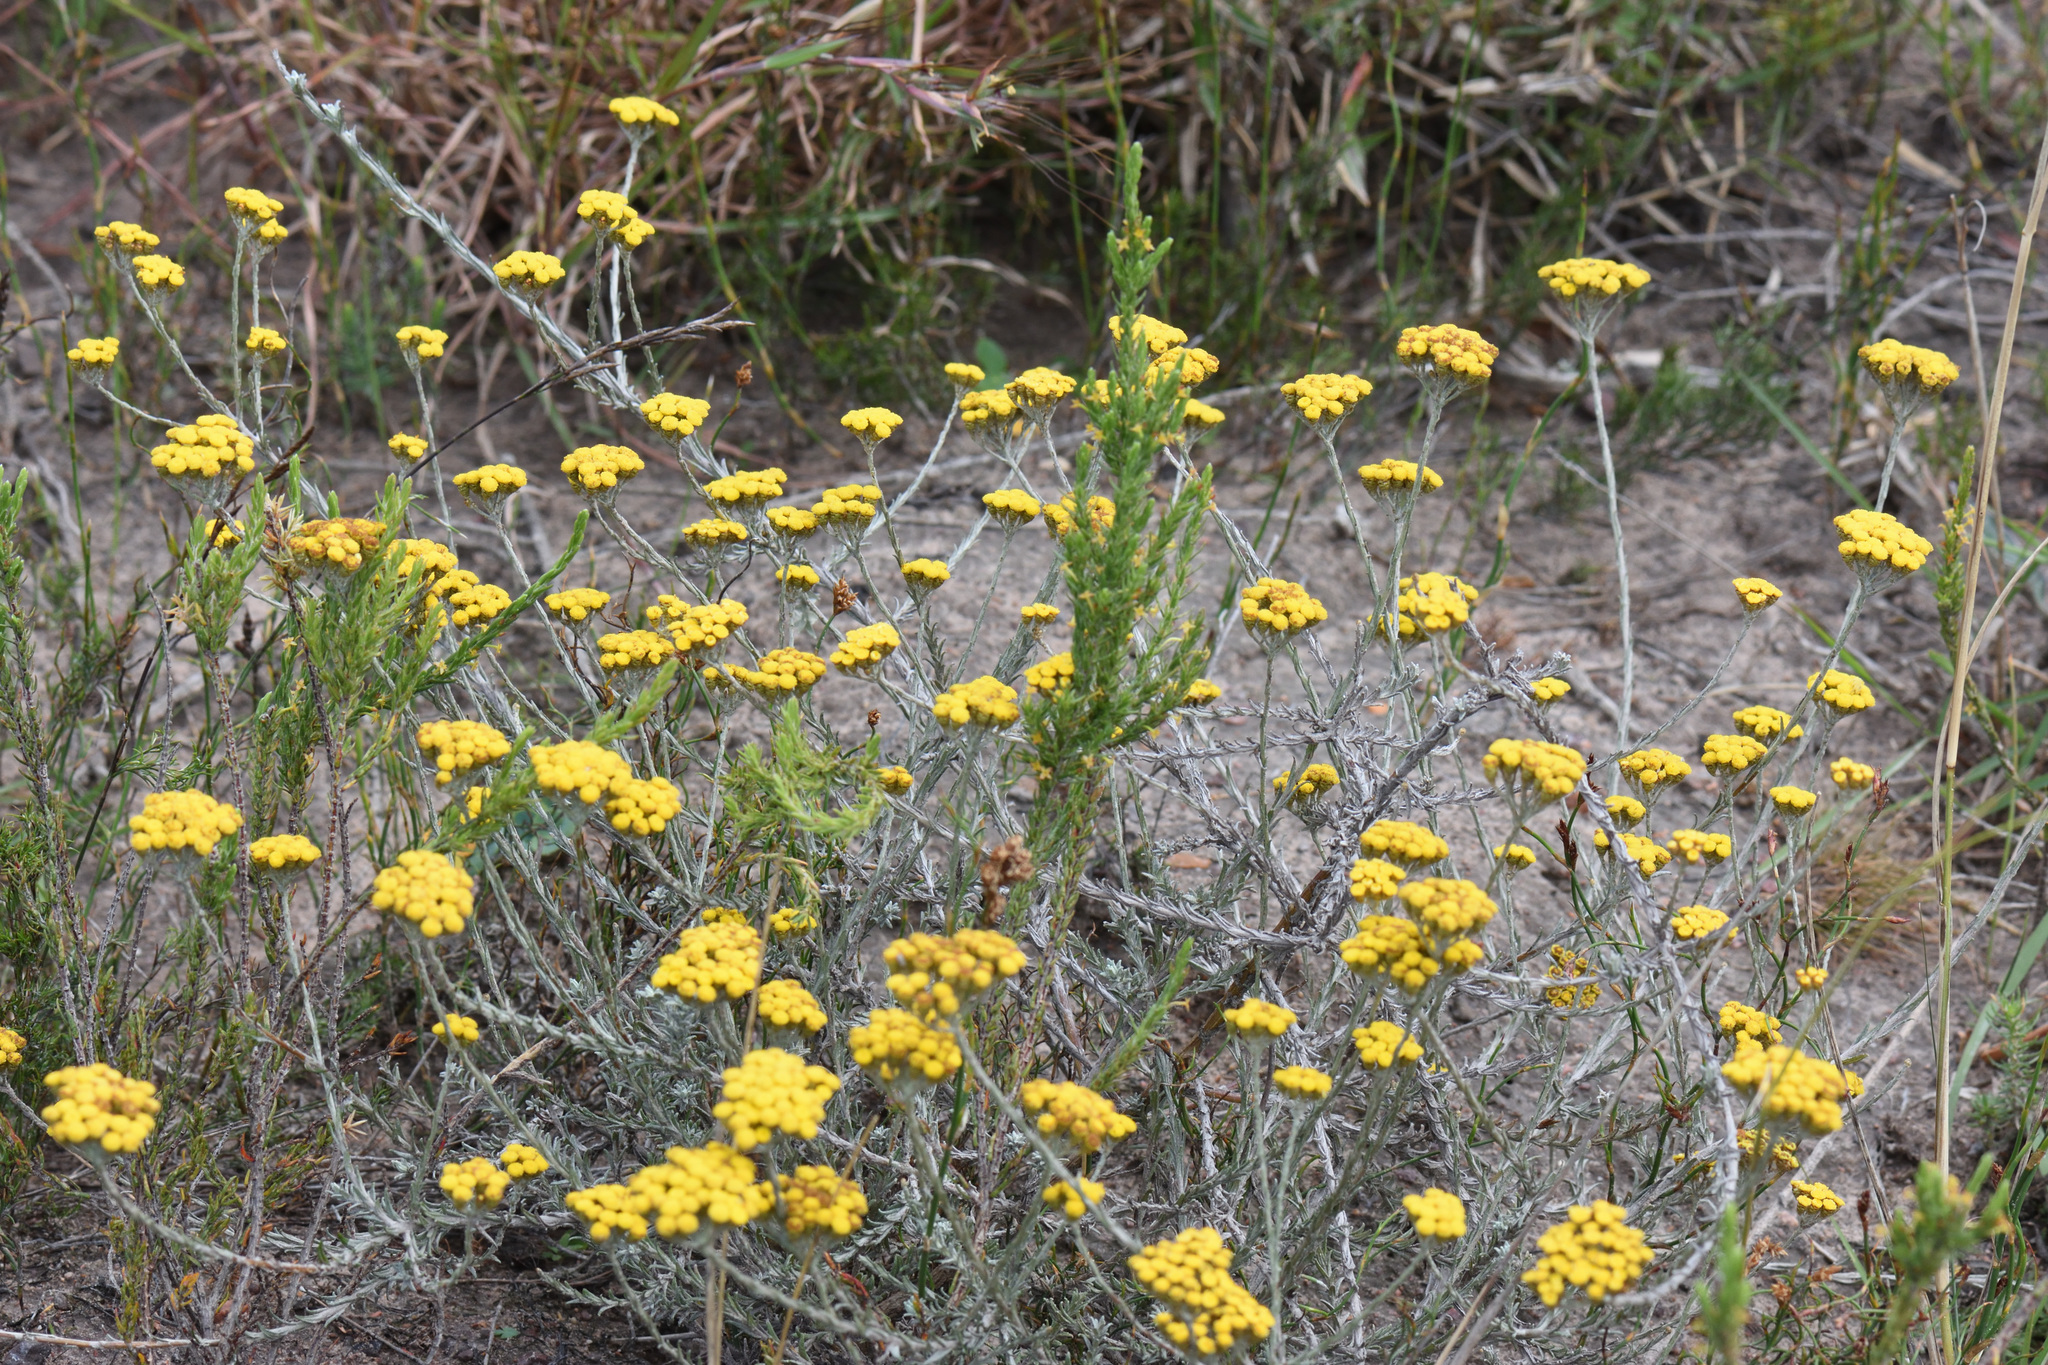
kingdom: Plantae
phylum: Tracheophyta
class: Magnoliopsida
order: Asterales
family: Asteraceae
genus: Helichrysum
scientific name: Helichrysum anomalum
